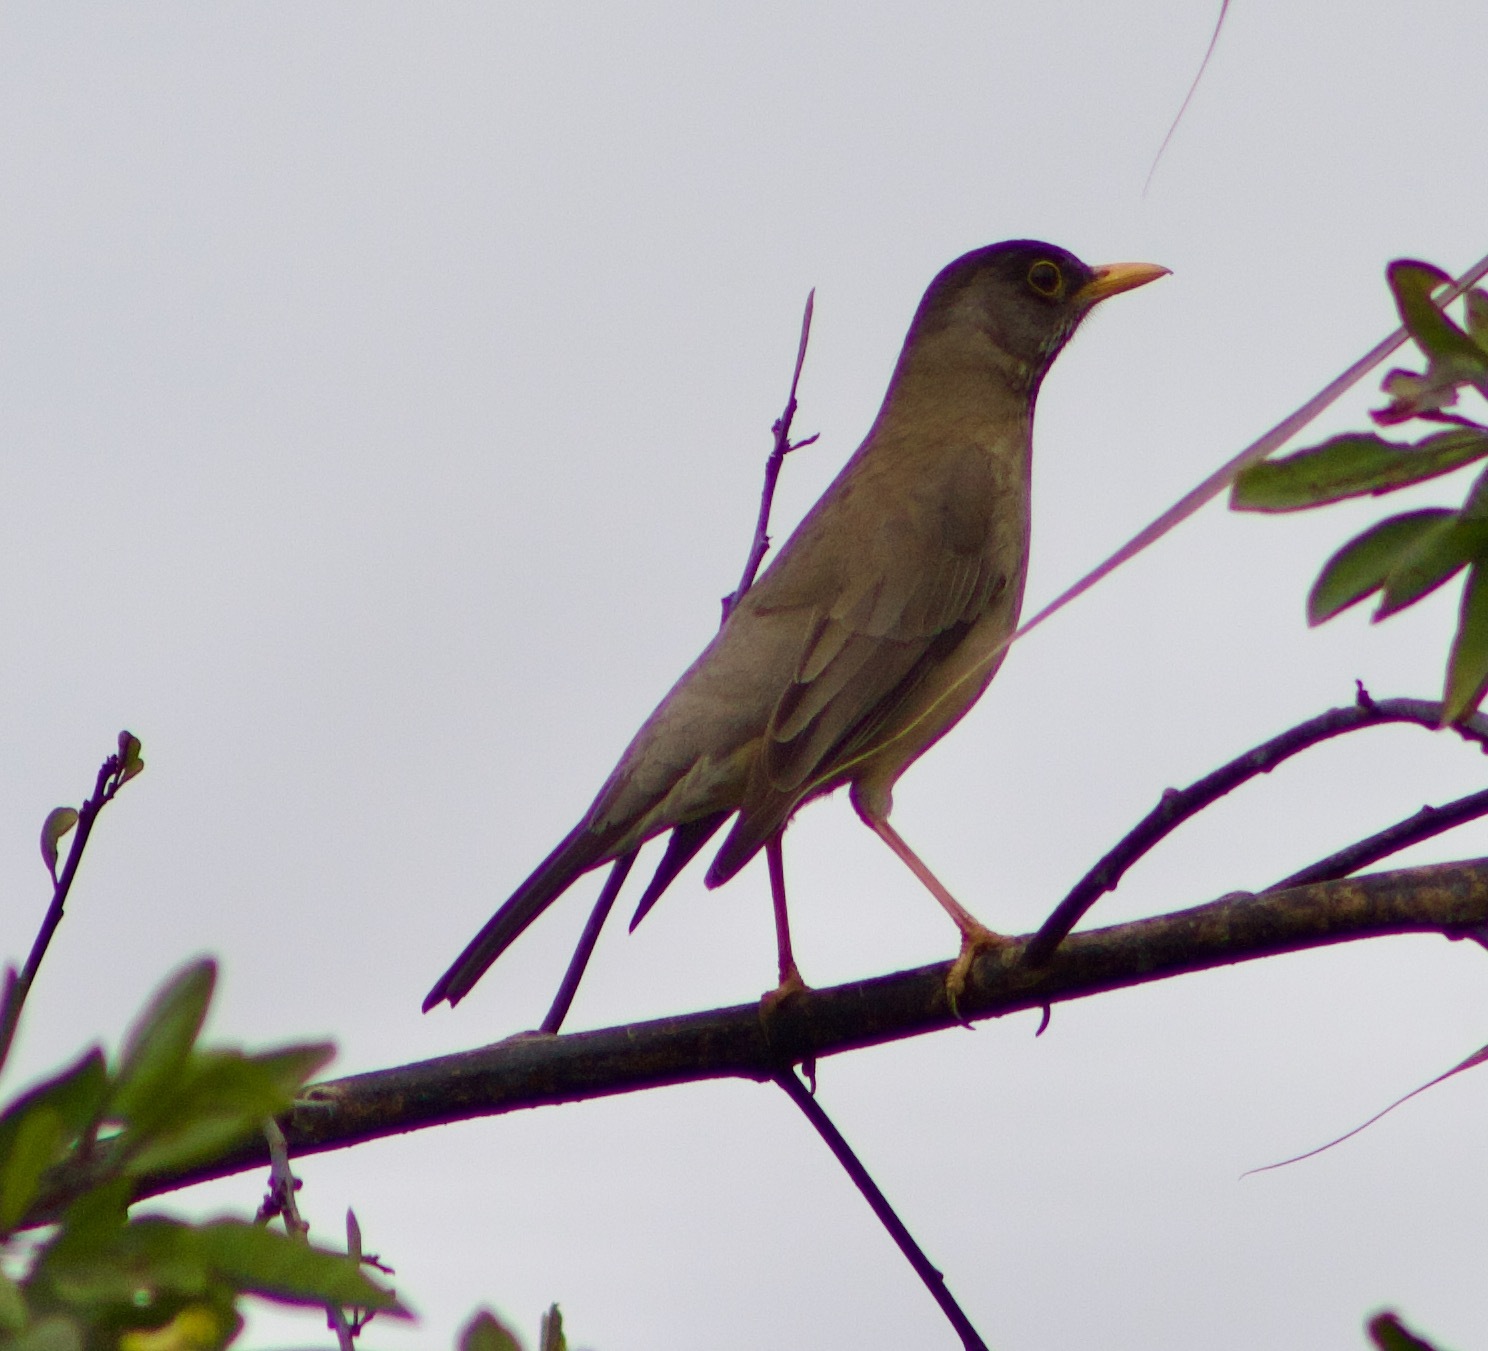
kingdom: Animalia
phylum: Chordata
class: Aves
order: Passeriformes
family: Turdidae
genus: Turdus
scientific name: Turdus falcklandii
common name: Austral thrush
